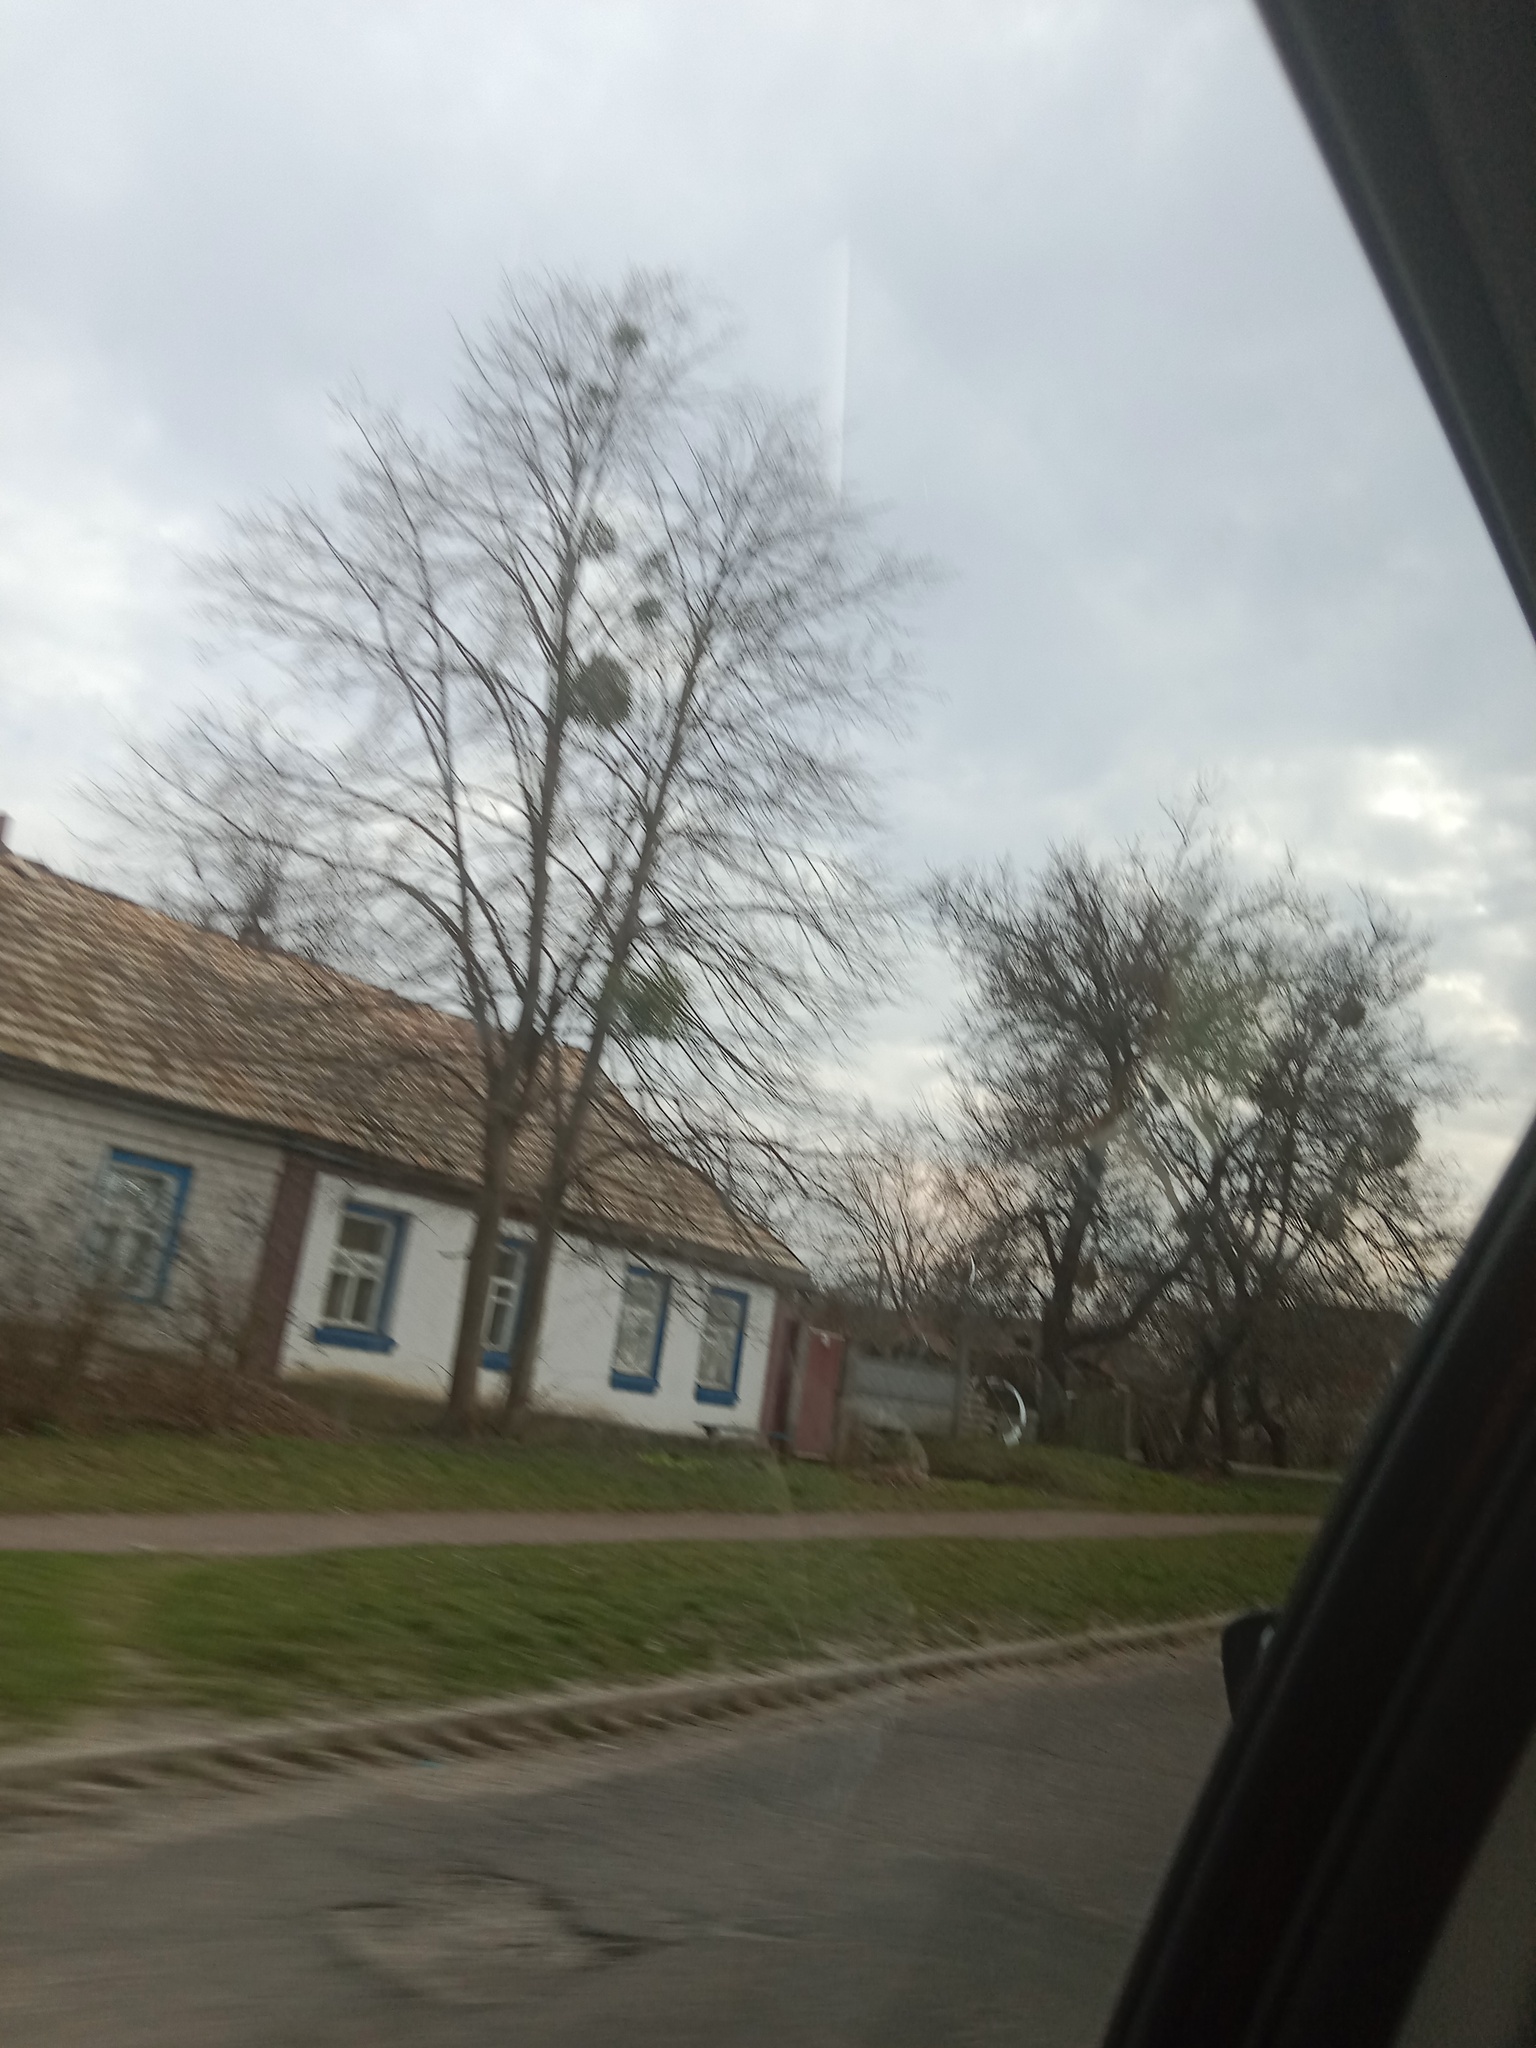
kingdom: Plantae
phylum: Tracheophyta
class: Magnoliopsida
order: Santalales
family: Viscaceae
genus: Viscum
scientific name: Viscum album
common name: Mistletoe
